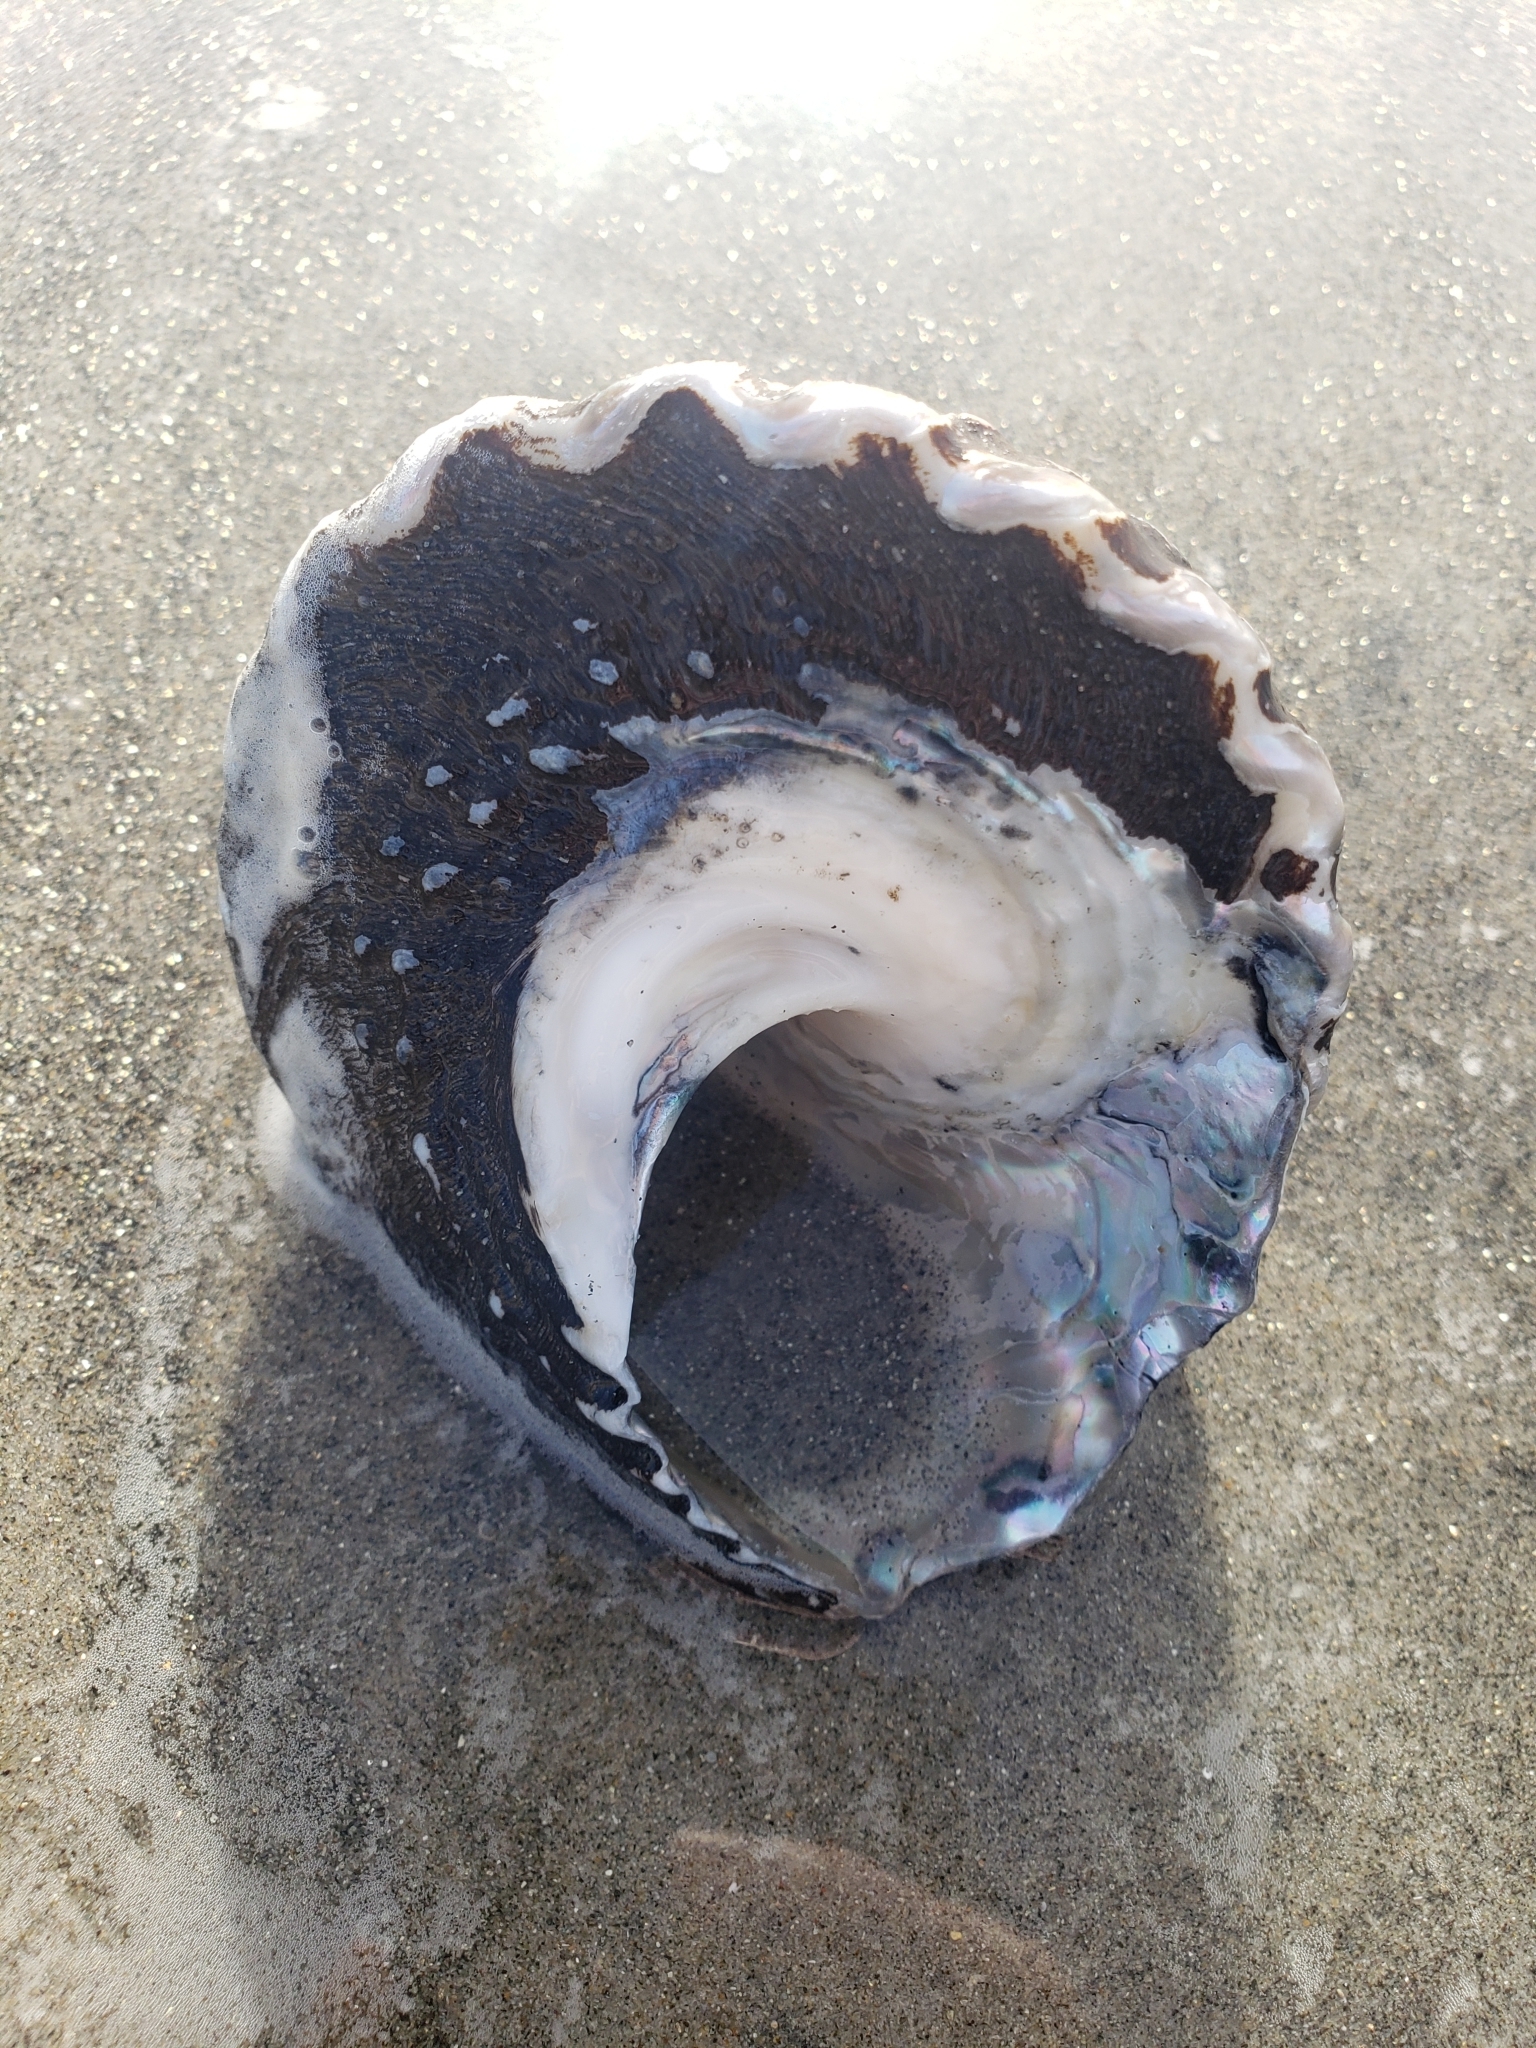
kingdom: Animalia
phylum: Mollusca
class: Gastropoda
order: Trochida
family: Turbinidae
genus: Megastraea
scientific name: Megastraea undosa
